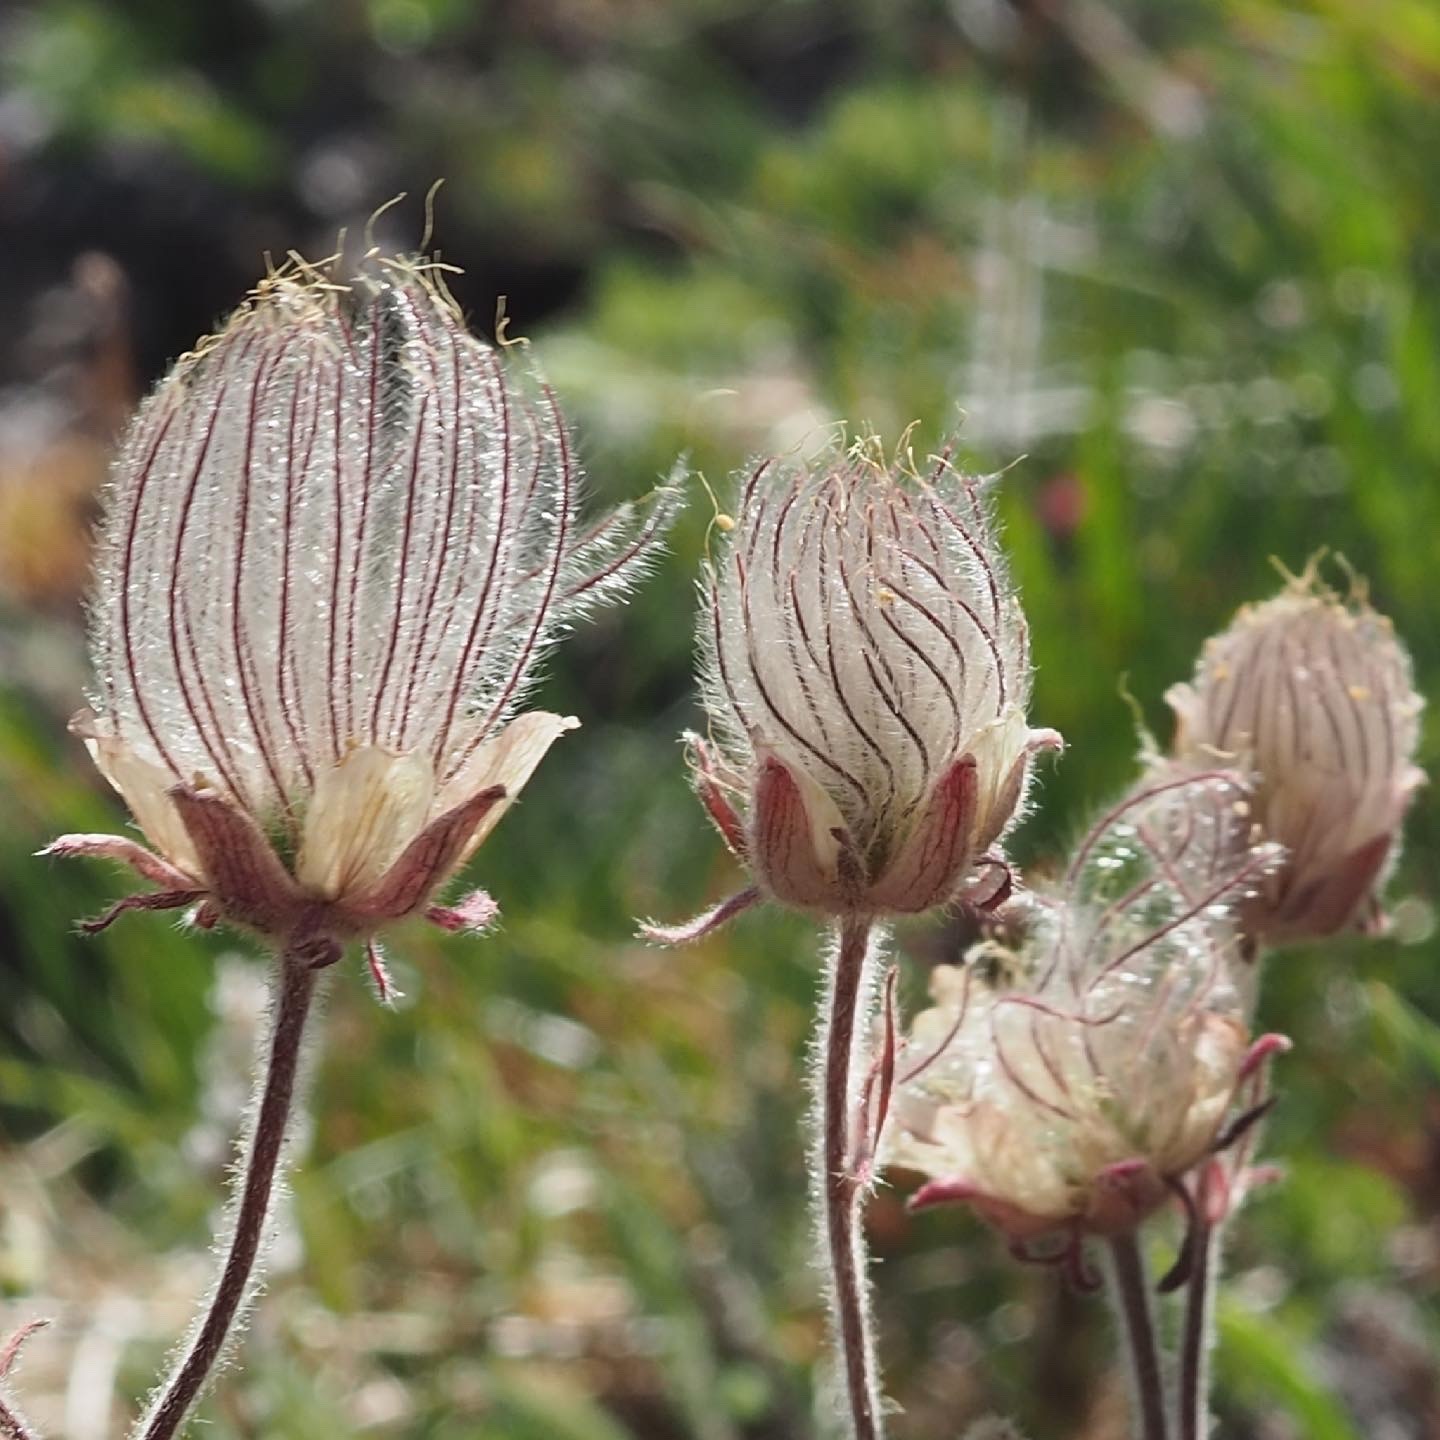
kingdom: Plantae
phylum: Tracheophyta
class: Magnoliopsida
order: Rosales
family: Rosaceae
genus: Geum
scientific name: Geum triflorum
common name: Old man's whiskers
